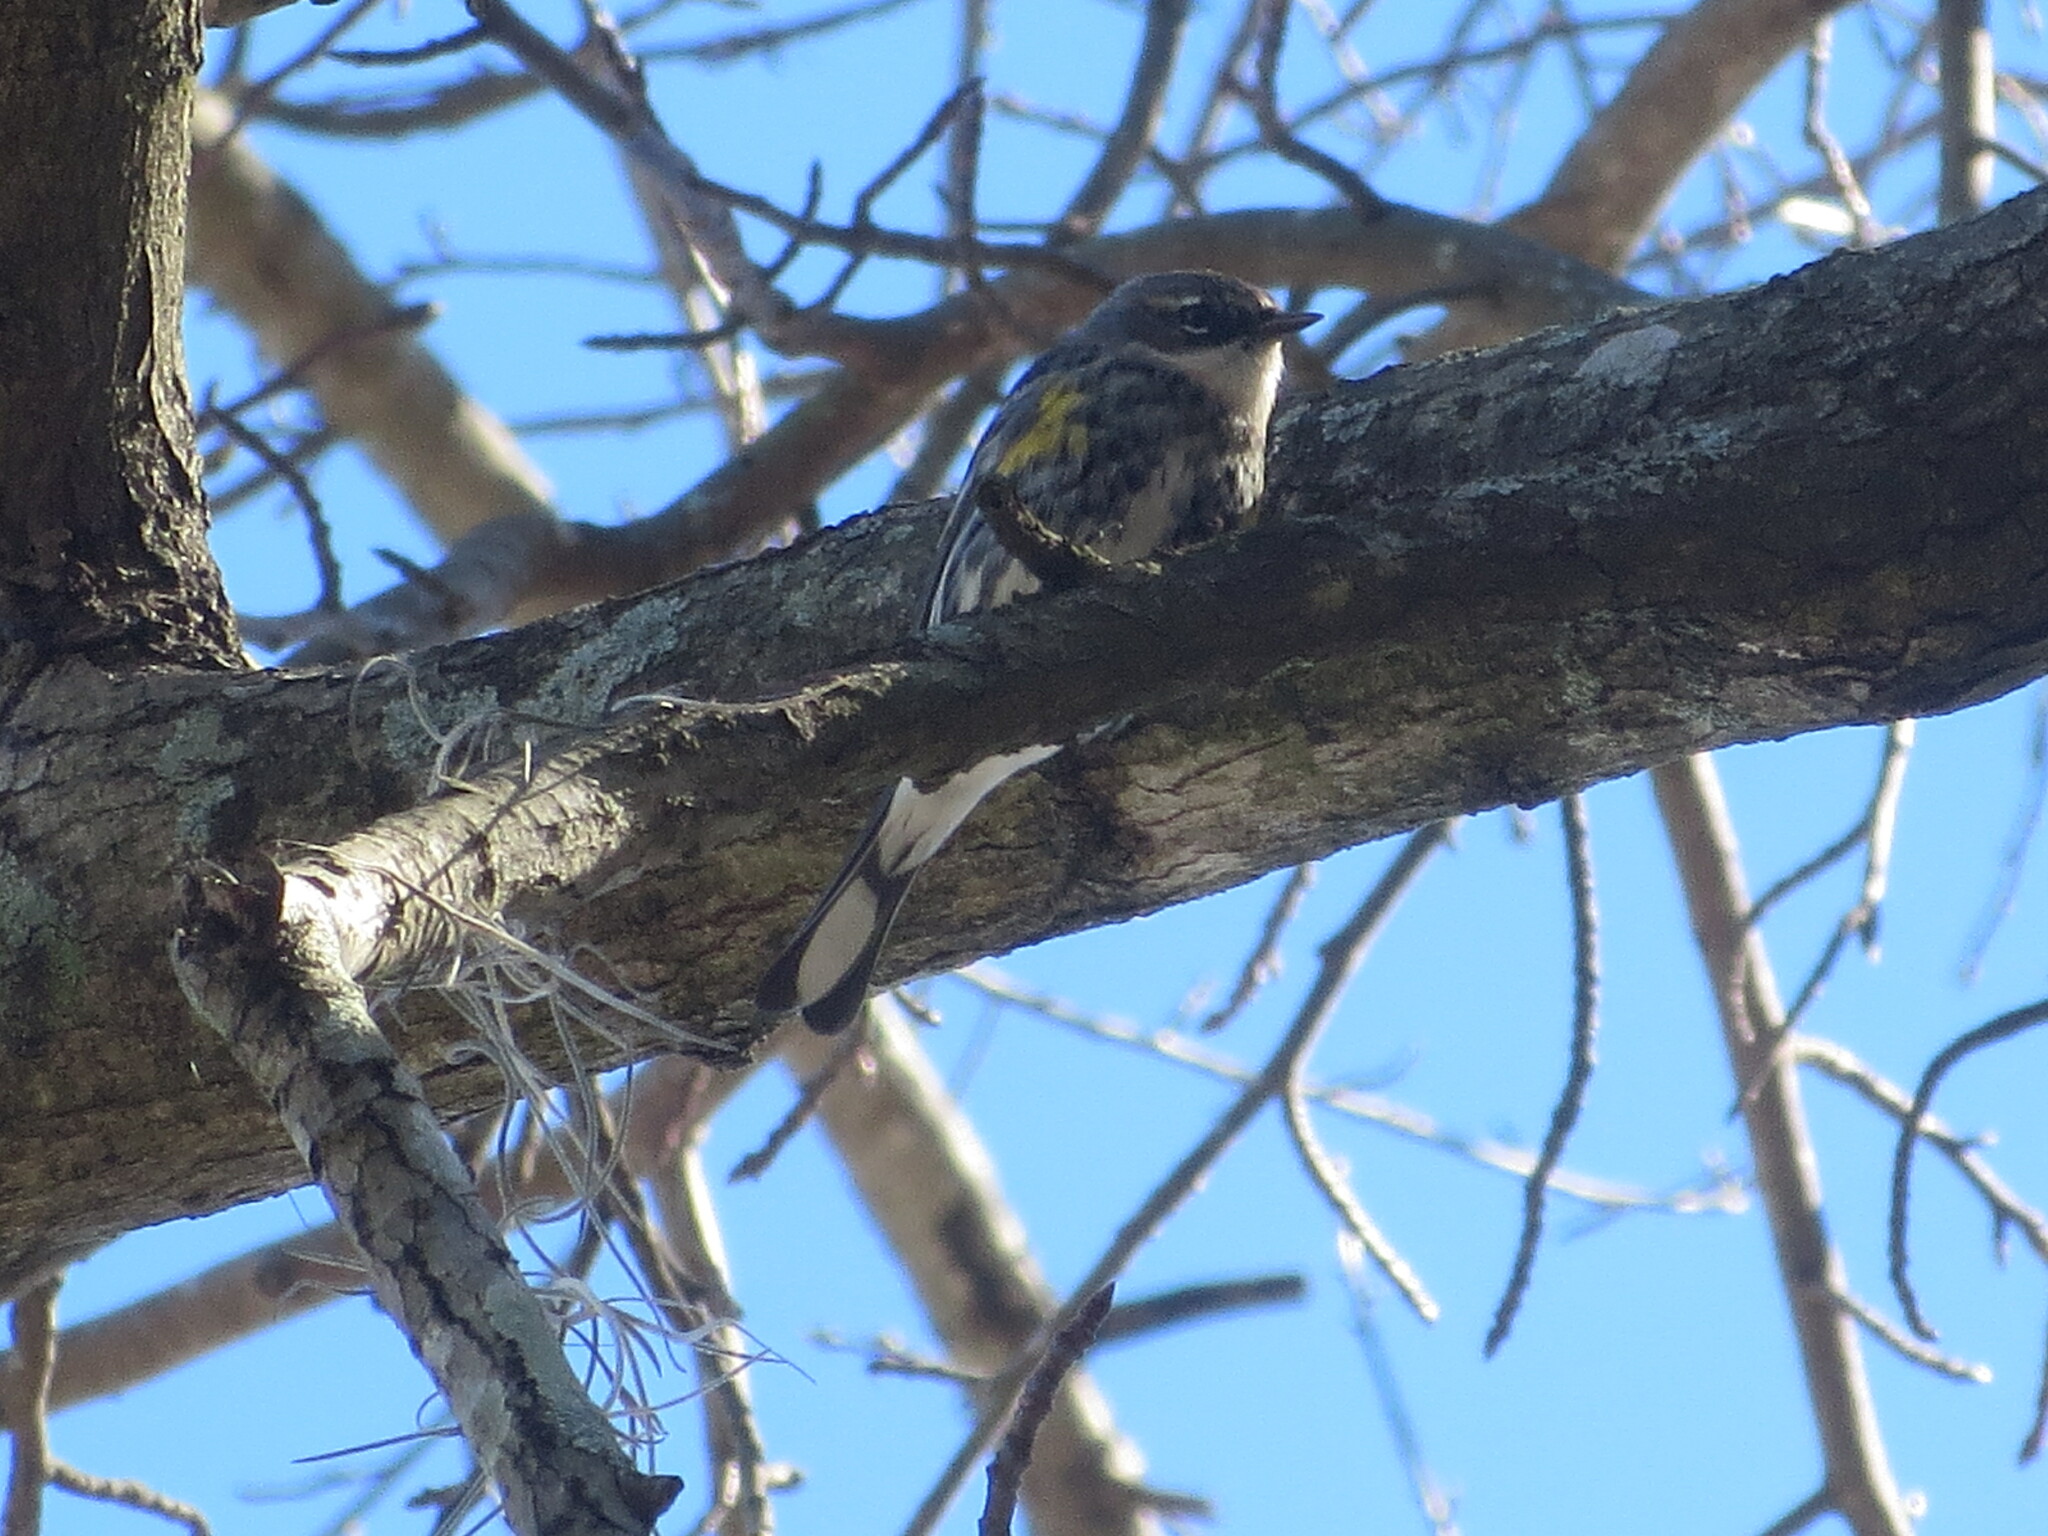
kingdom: Animalia
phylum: Chordata
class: Aves
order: Passeriformes
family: Parulidae
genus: Setophaga
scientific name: Setophaga coronata
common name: Myrtle warbler
